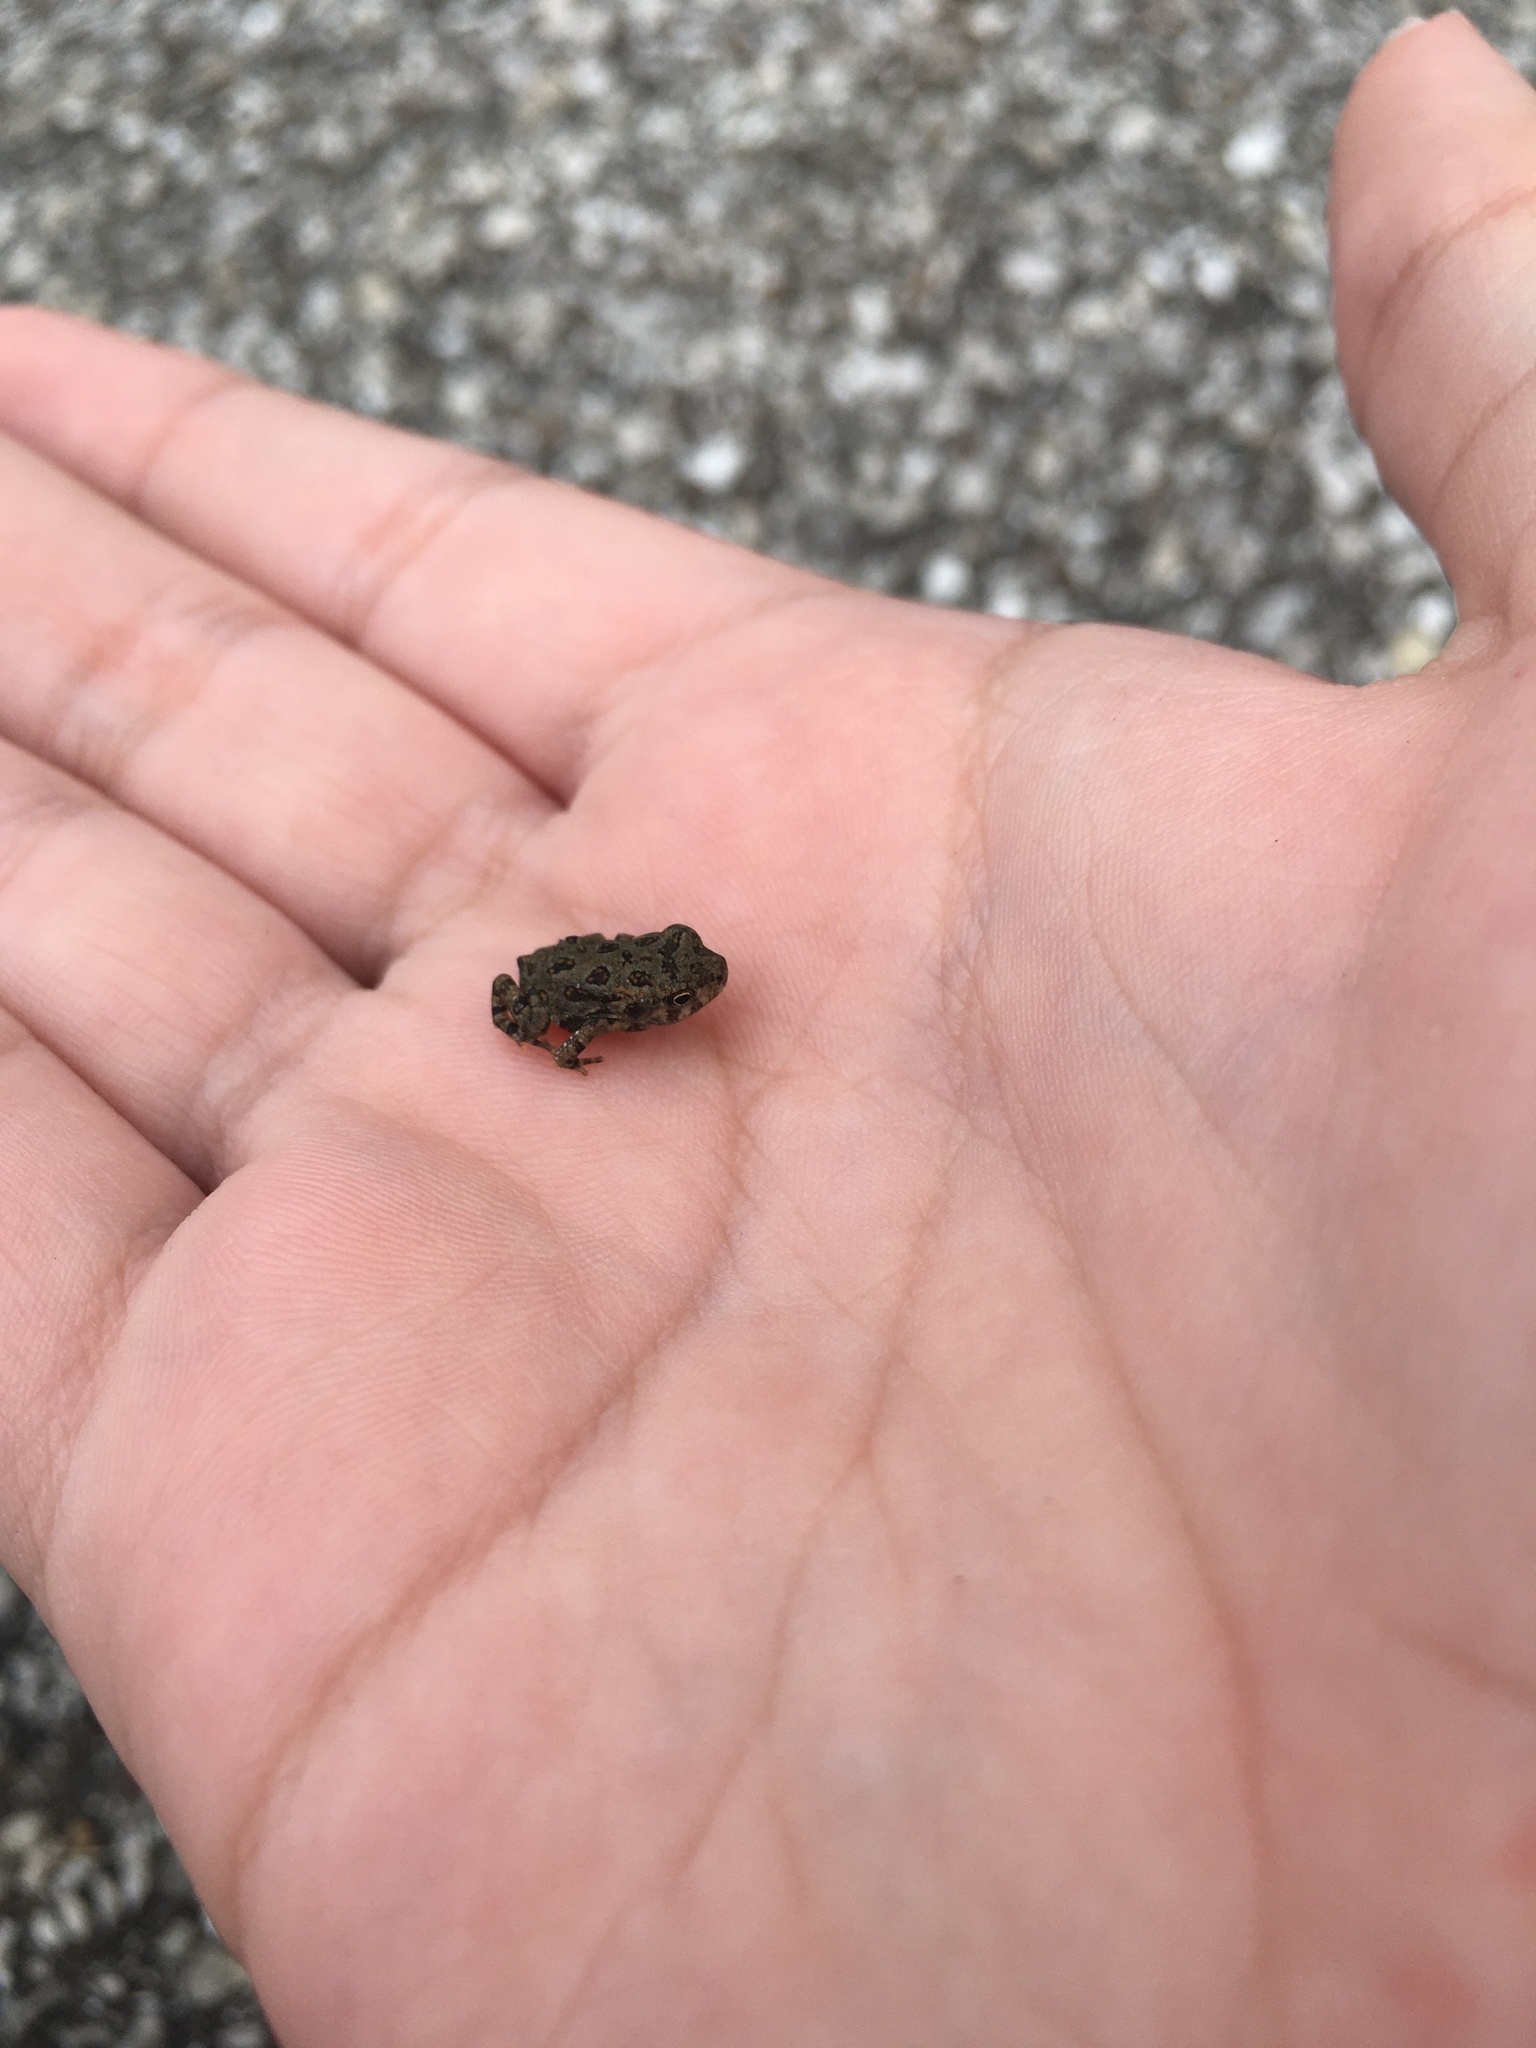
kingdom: Animalia
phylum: Chordata
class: Amphibia
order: Anura
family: Bufonidae
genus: Anaxyrus
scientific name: Anaxyrus fowleri
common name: Fowler's toad
